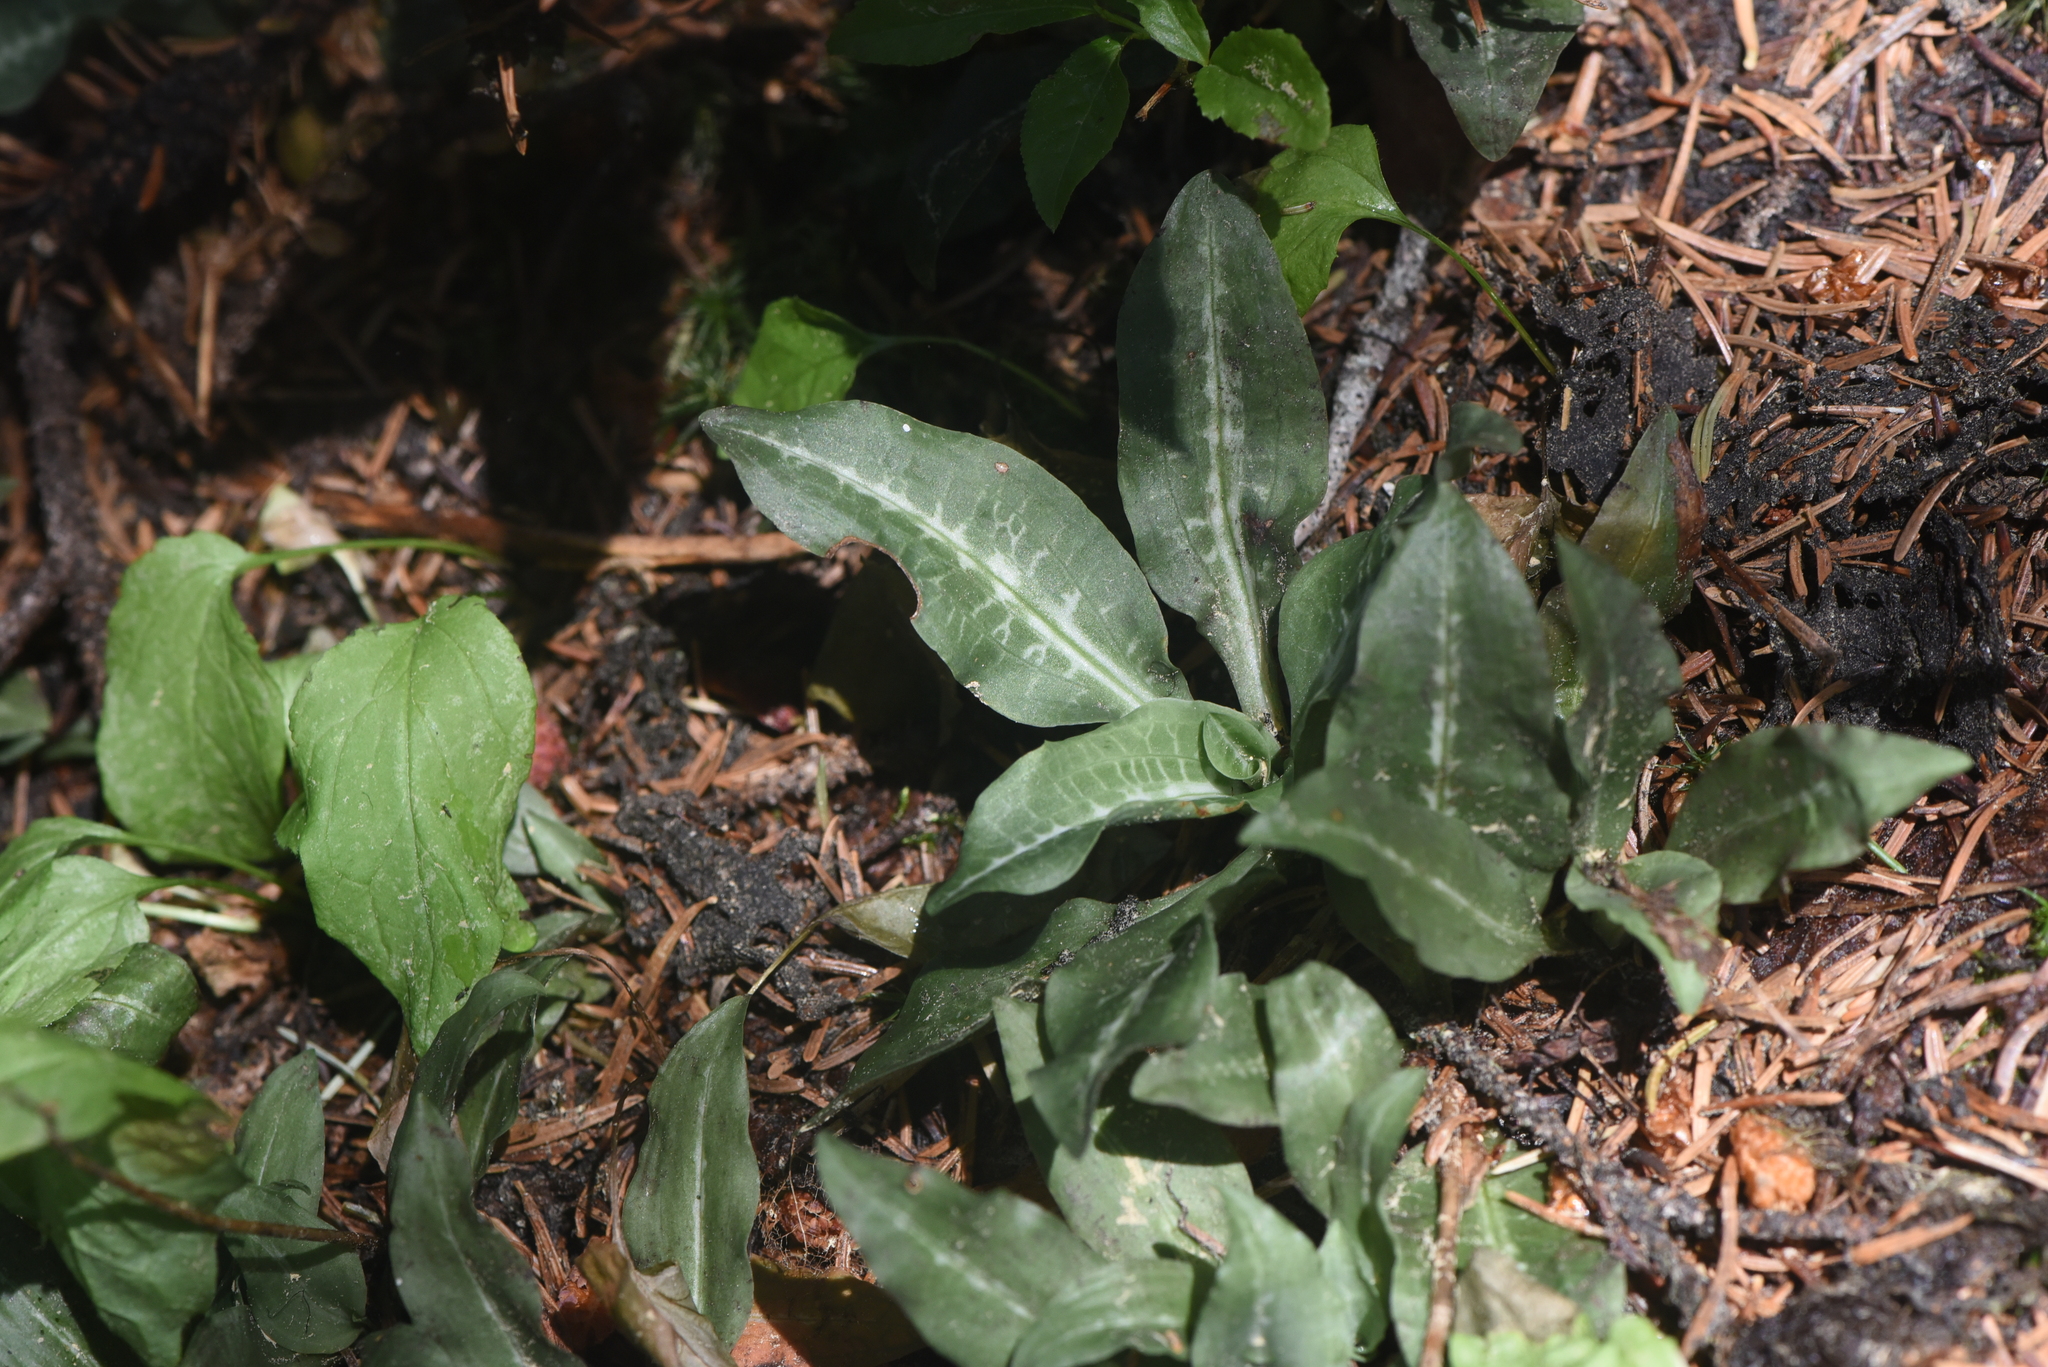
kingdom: Plantae
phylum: Tracheophyta
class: Liliopsida
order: Asparagales
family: Orchidaceae
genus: Goodyera
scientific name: Goodyera oblongifolia
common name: Giant rattlesnake-plantain
